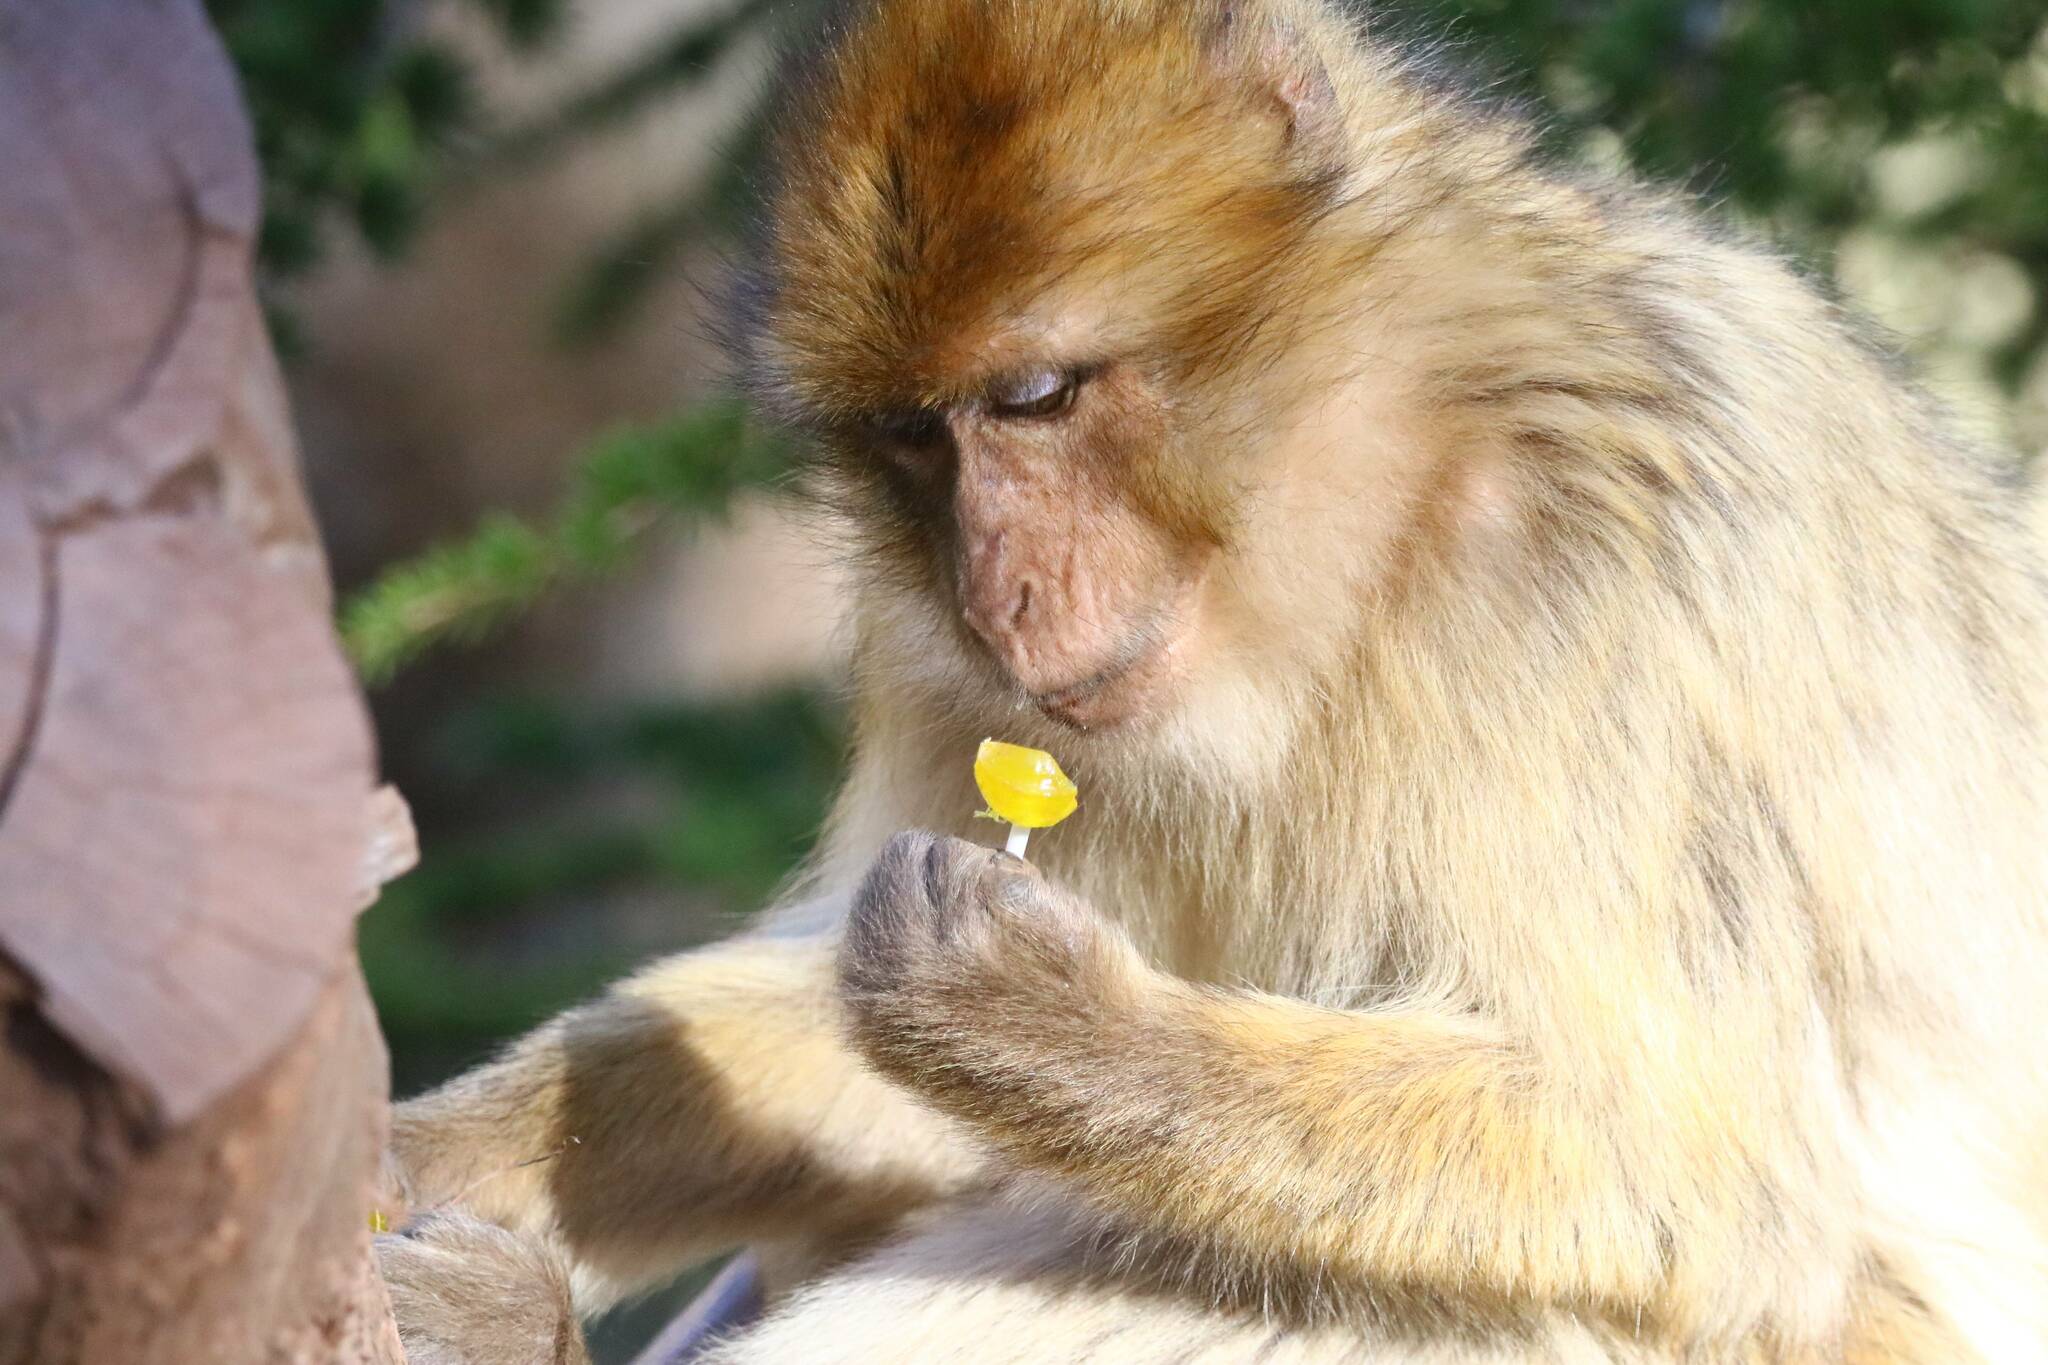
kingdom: Animalia
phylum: Chordata
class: Mammalia
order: Primates
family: Cercopithecidae
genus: Macaca
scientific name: Macaca sylvanus
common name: Barbary macaque
